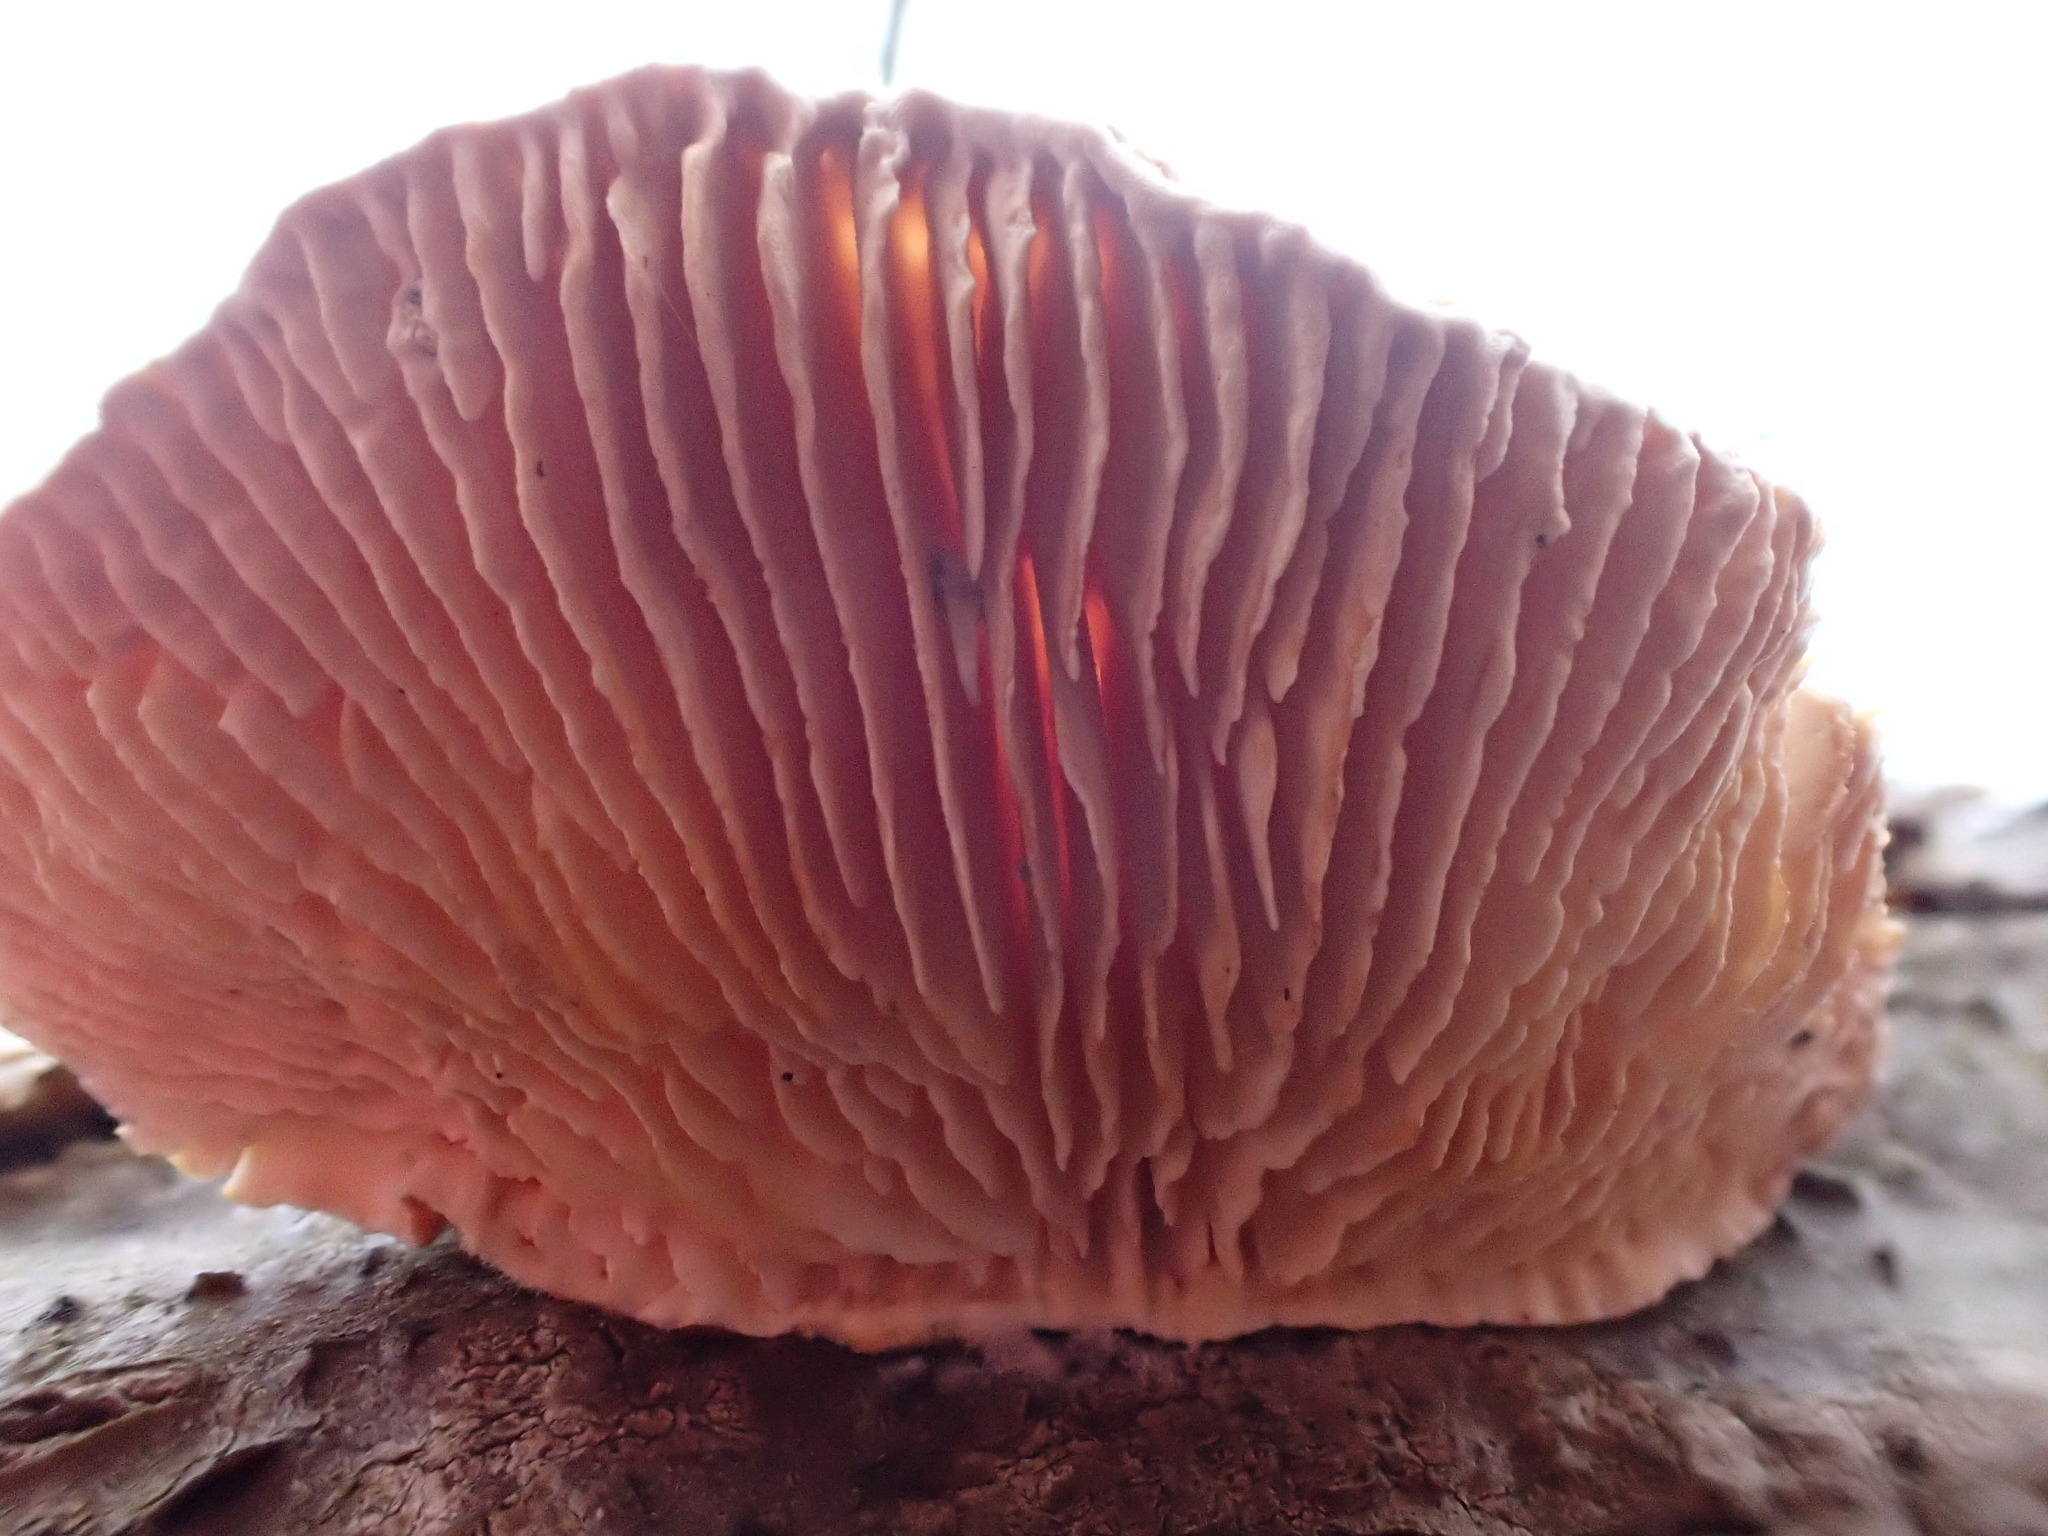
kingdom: Fungi
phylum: Basidiomycota
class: Agaricomycetes
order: Polyporales
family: Polyporaceae
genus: Lenzites
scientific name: Lenzites betulinus
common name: Birch mazegill
